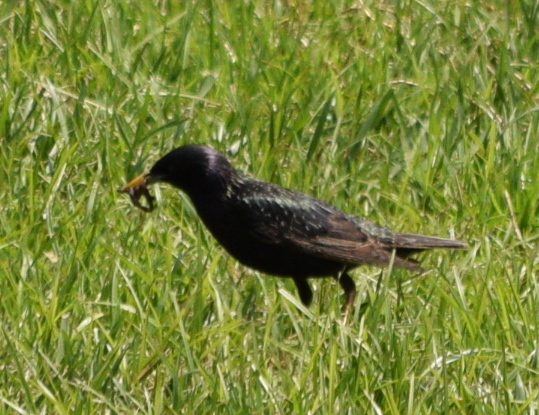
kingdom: Animalia
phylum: Chordata
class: Aves
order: Passeriformes
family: Sturnidae
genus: Sturnus
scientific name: Sturnus vulgaris
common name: Common starling
